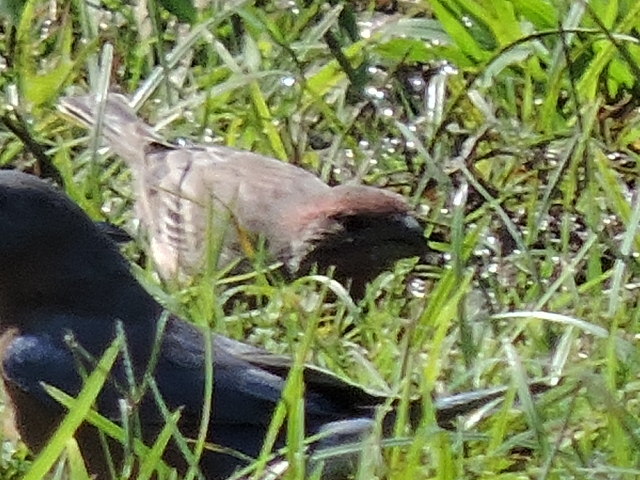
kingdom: Animalia
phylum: Chordata
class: Aves
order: Passeriformes
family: Fringillidae
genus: Haemorhous
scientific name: Haemorhous mexicanus
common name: House finch
